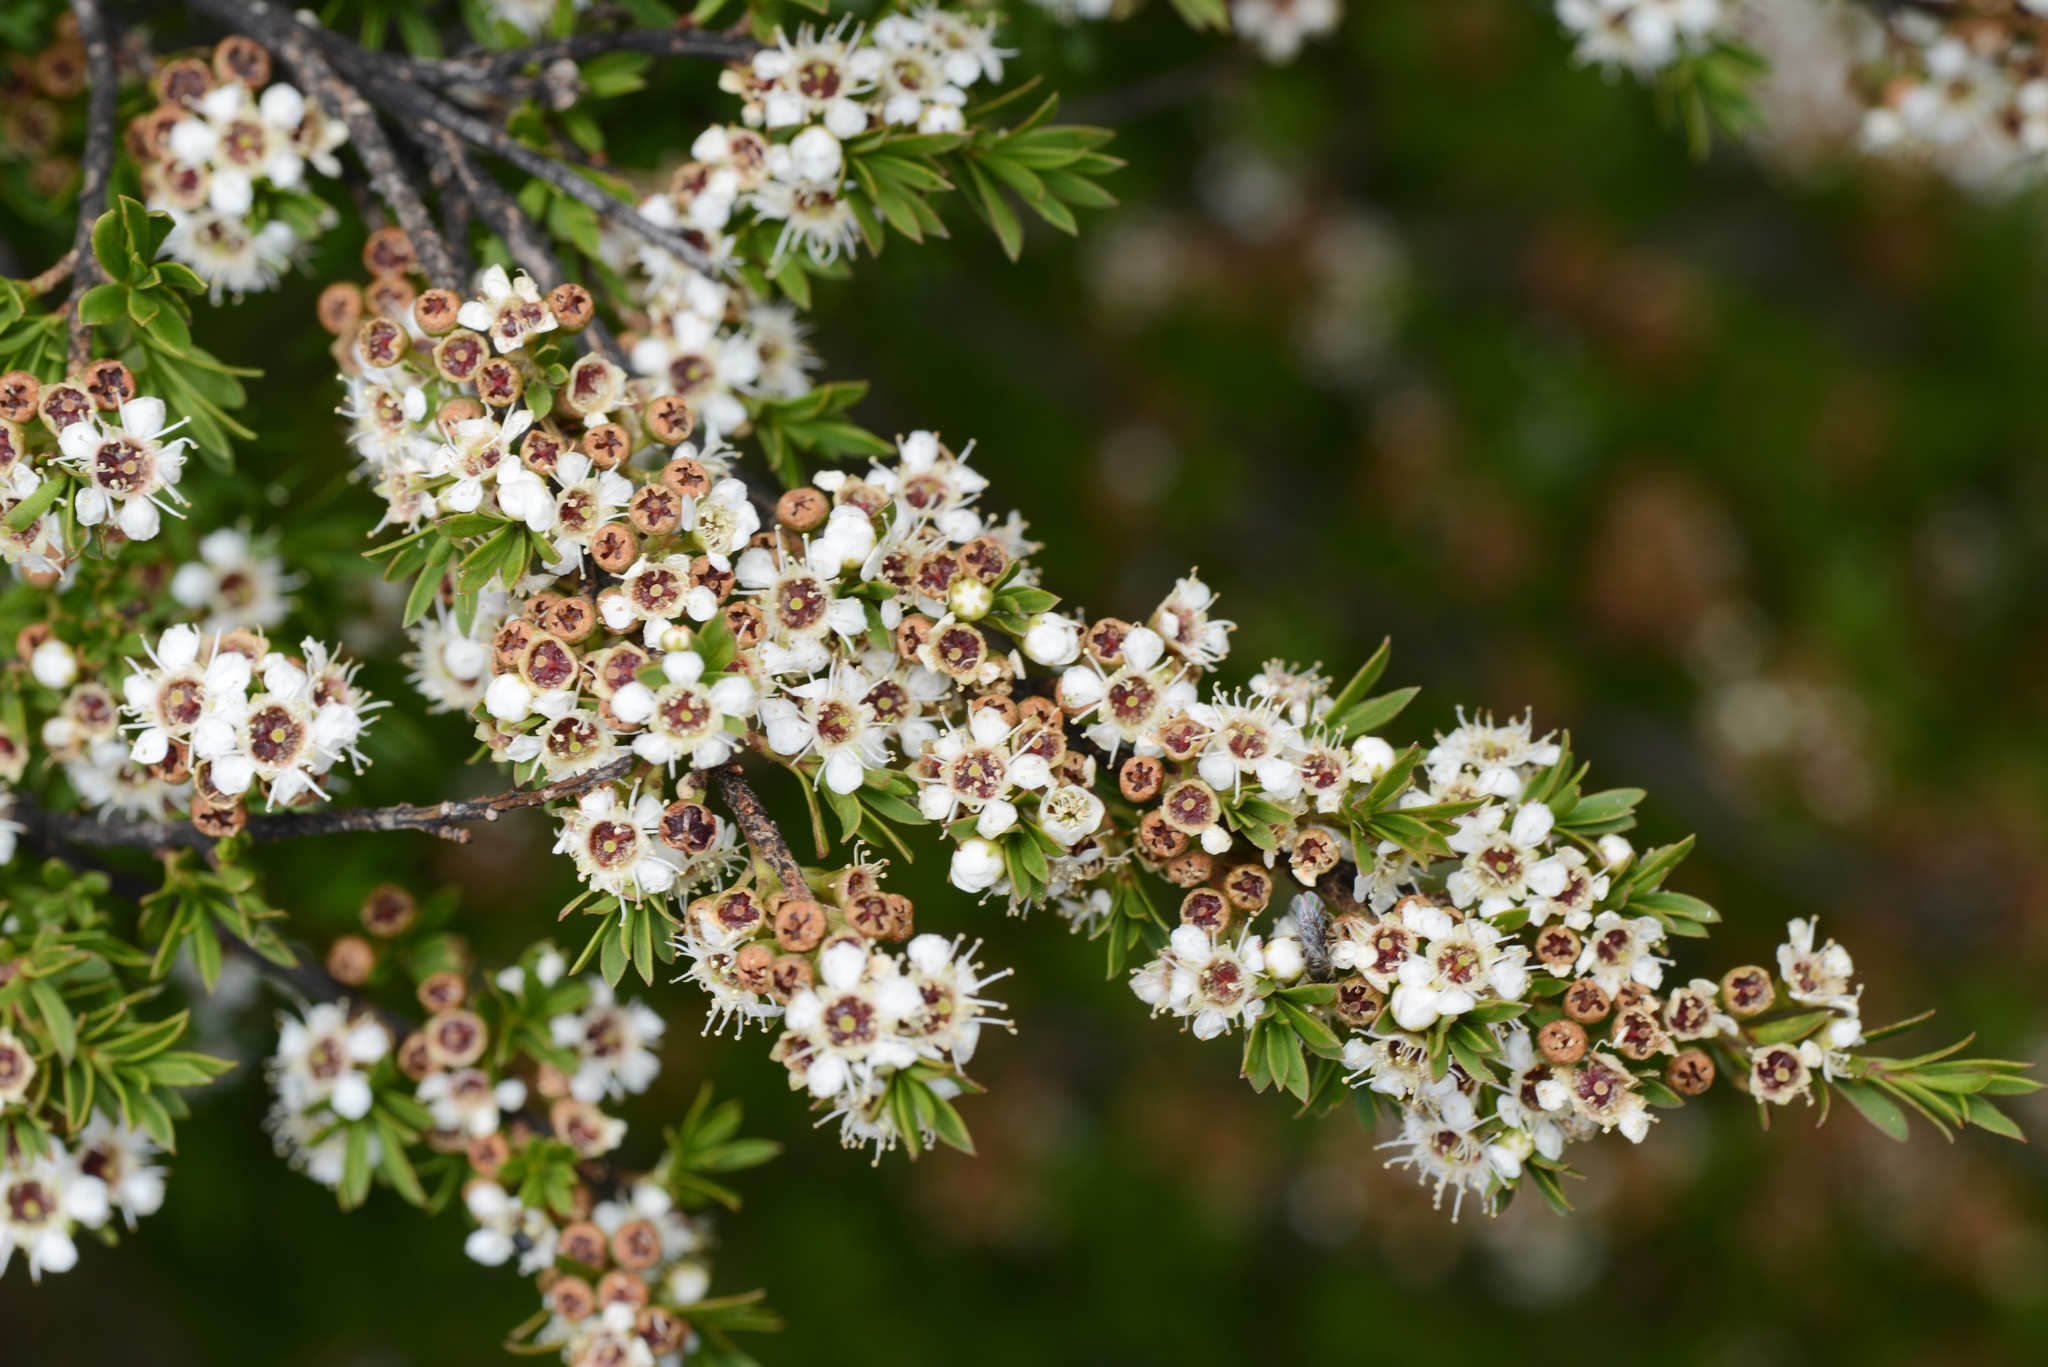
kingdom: Plantae
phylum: Tracheophyta
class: Magnoliopsida
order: Myrtales
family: Myrtaceae
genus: Kunzea
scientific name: Kunzea robusta
